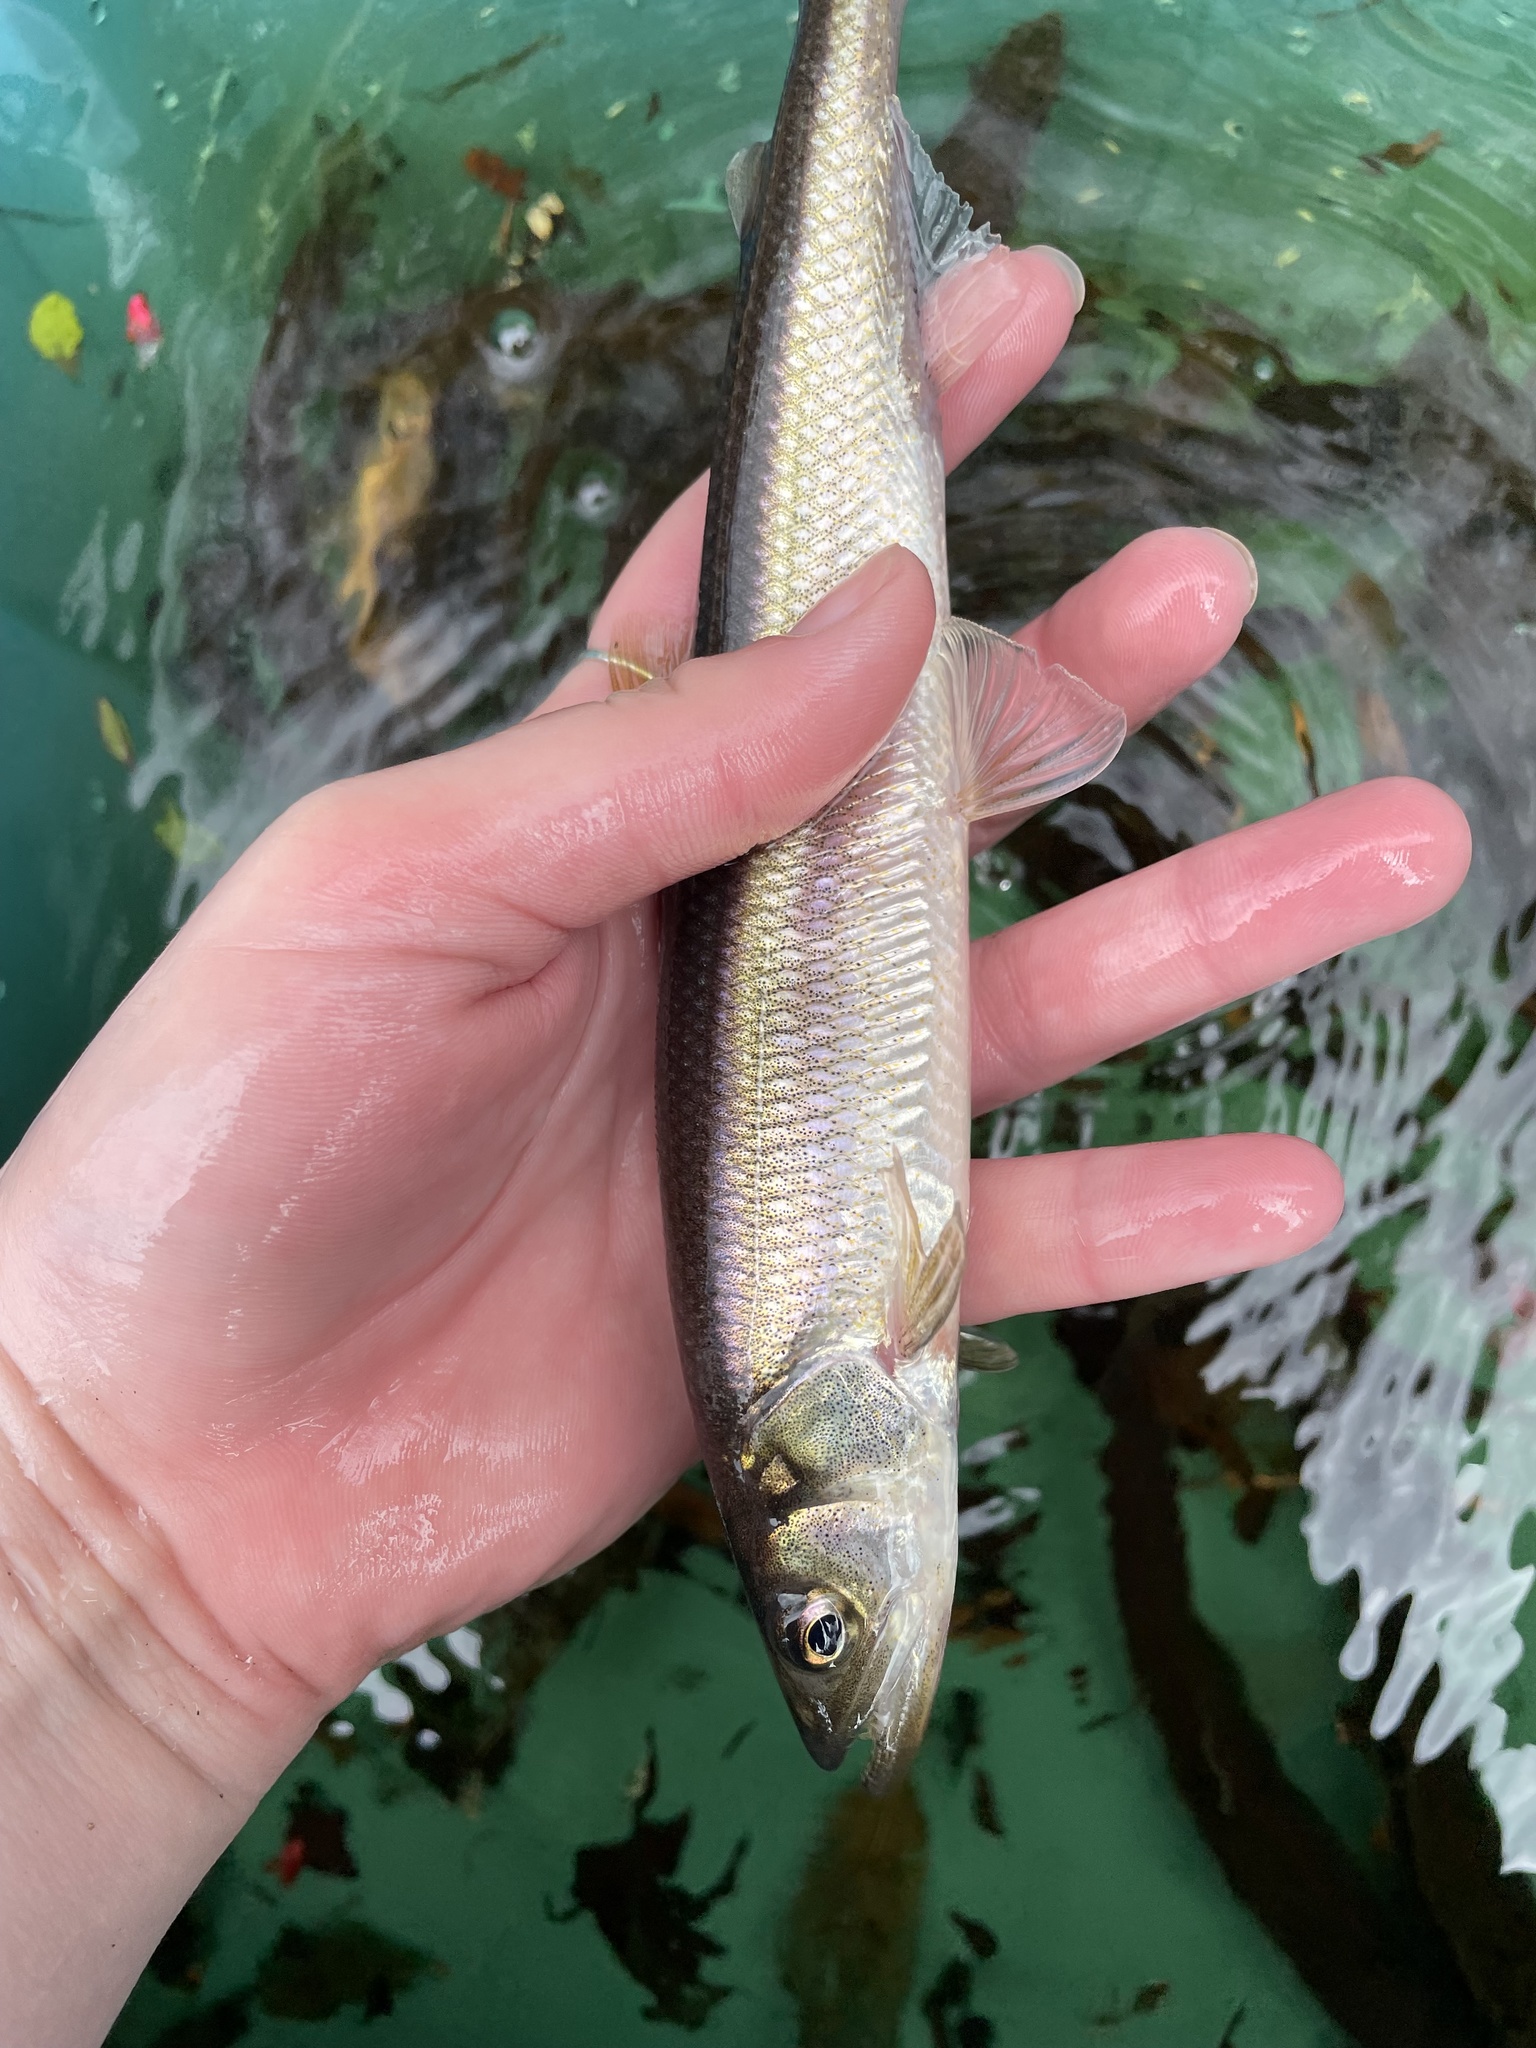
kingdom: Animalia
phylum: Chordata
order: Osmeriformes
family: Osmeridae
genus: Osmerus
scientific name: Osmerus mordax
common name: Rainbow smelt
